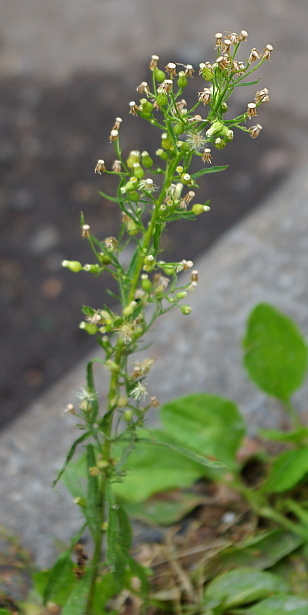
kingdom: Plantae
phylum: Tracheophyta
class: Magnoliopsida
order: Asterales
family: Asteraceae
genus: Erigeron
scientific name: Erigeron canadensis
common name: Canadian fleabane
